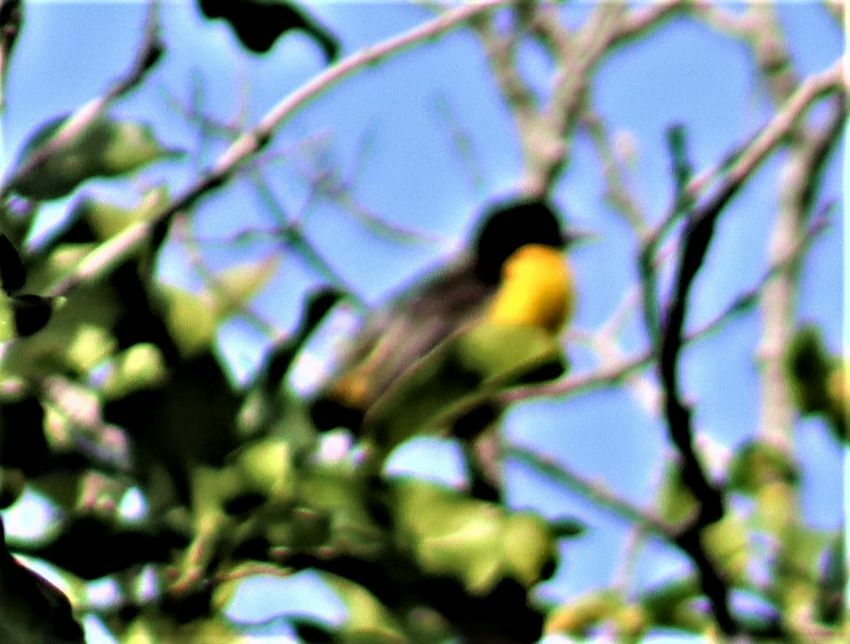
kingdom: Animalia
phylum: Chordata
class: Aves
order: Passeriformes
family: Ploceidae
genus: Ploceus
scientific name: Ploceus bicolor
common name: Dark-backed weaver
